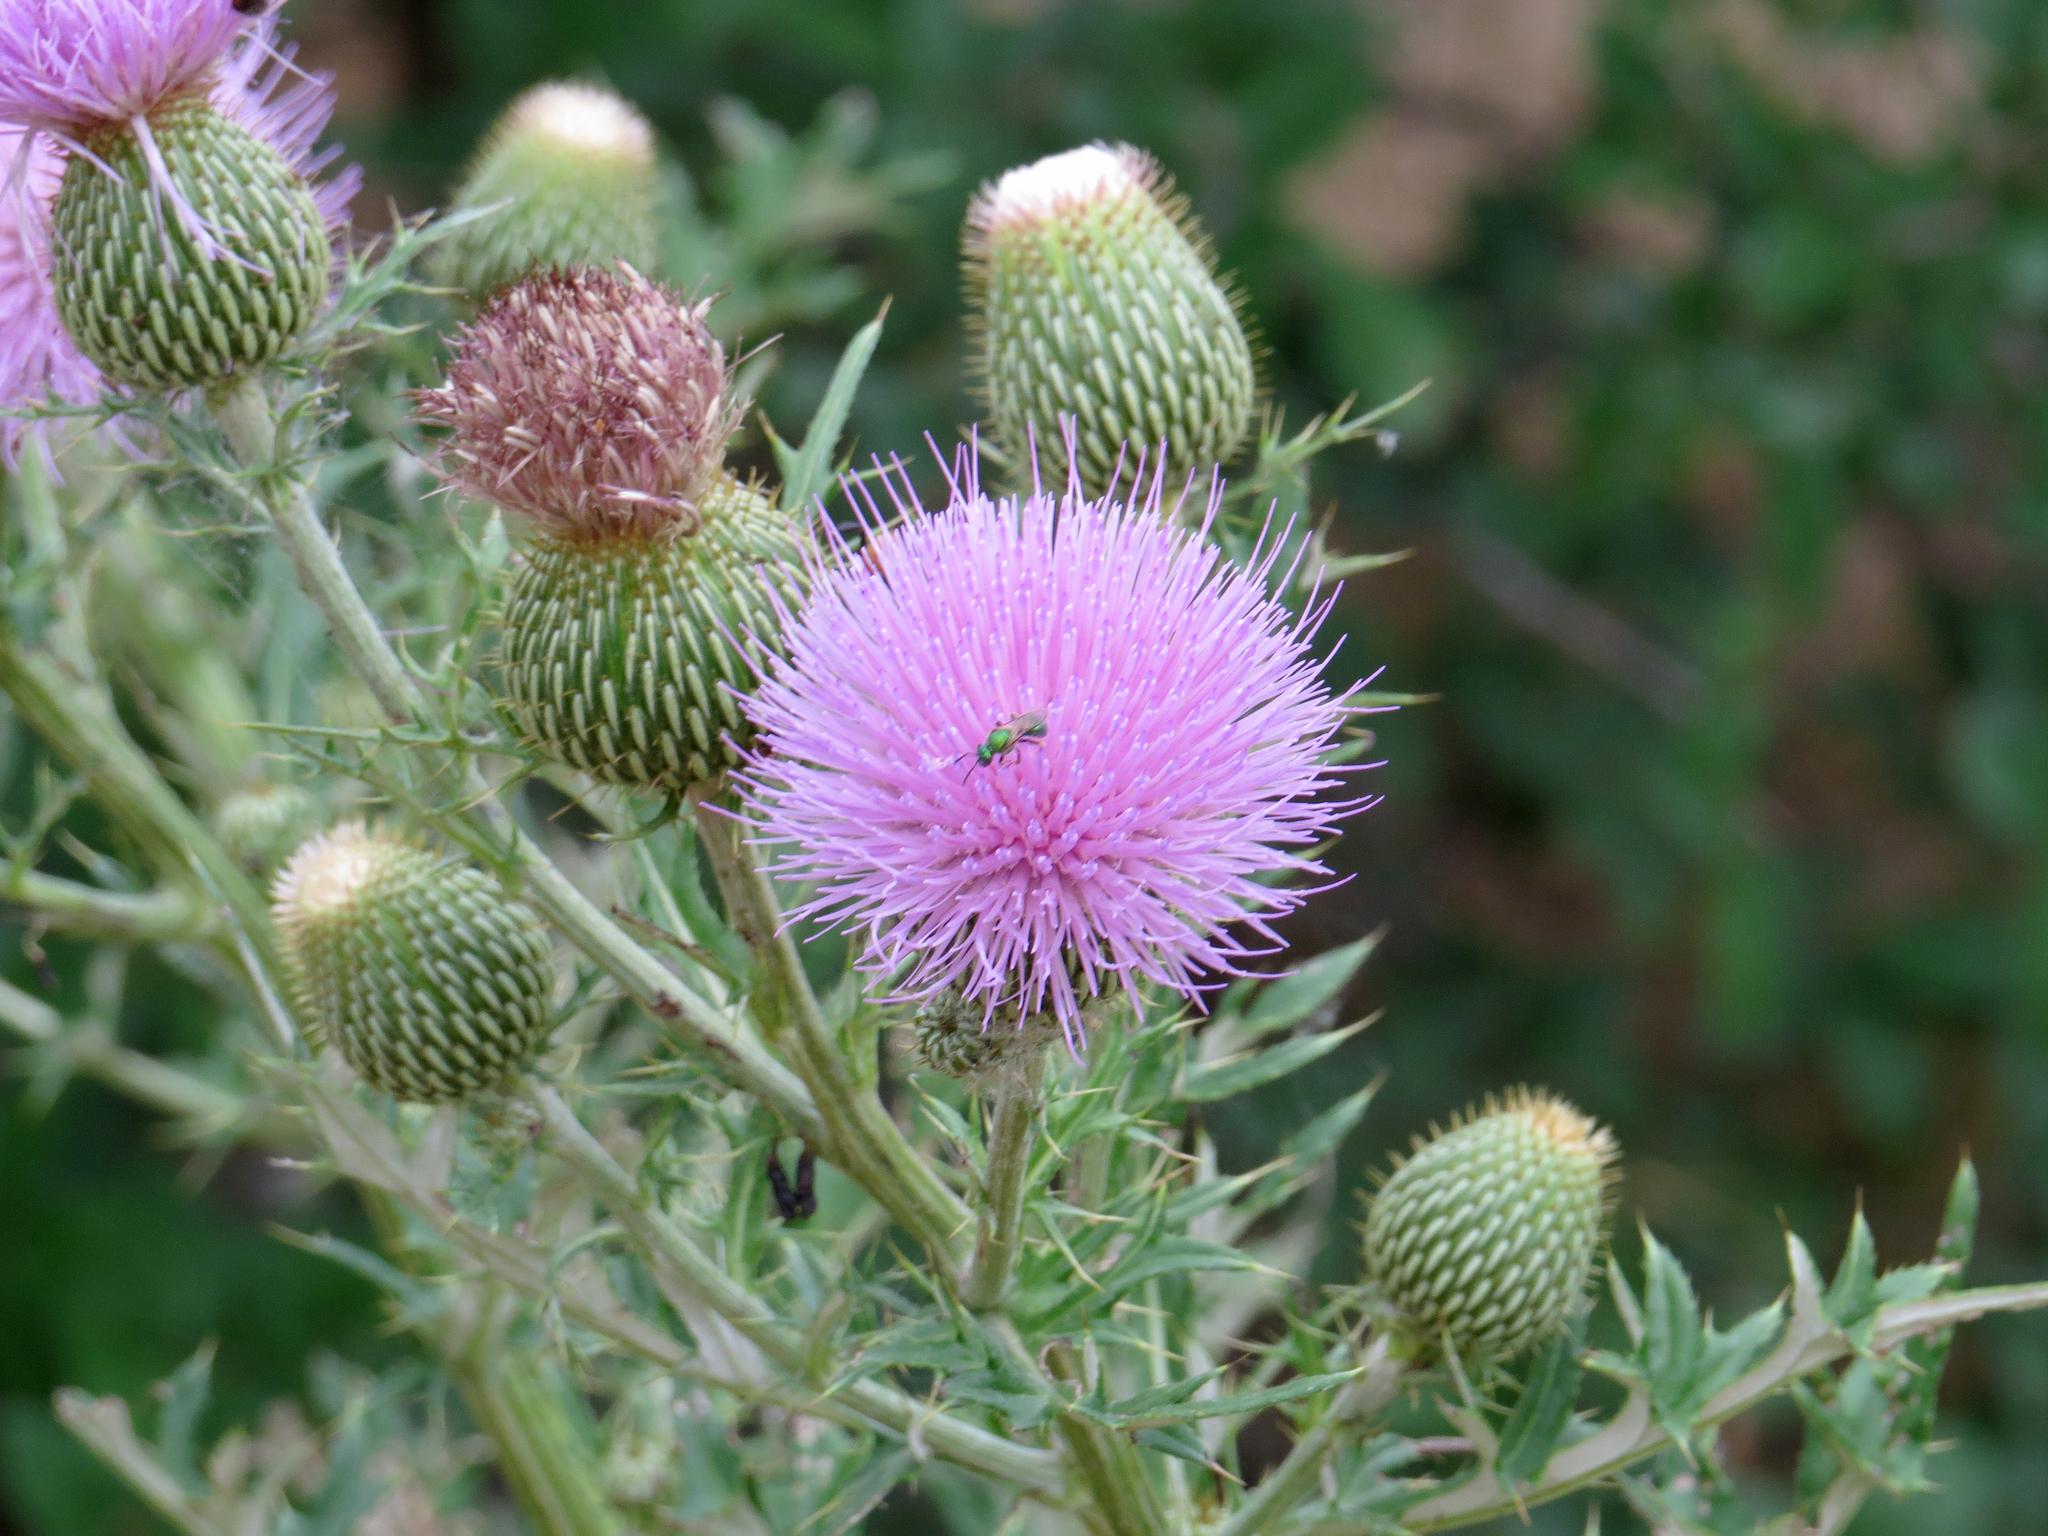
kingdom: Plantae
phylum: Tracheophyta
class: Magnoliopsida
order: Asterales
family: Asteraceae
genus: Cirsium
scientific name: Cirsium engelmannii
